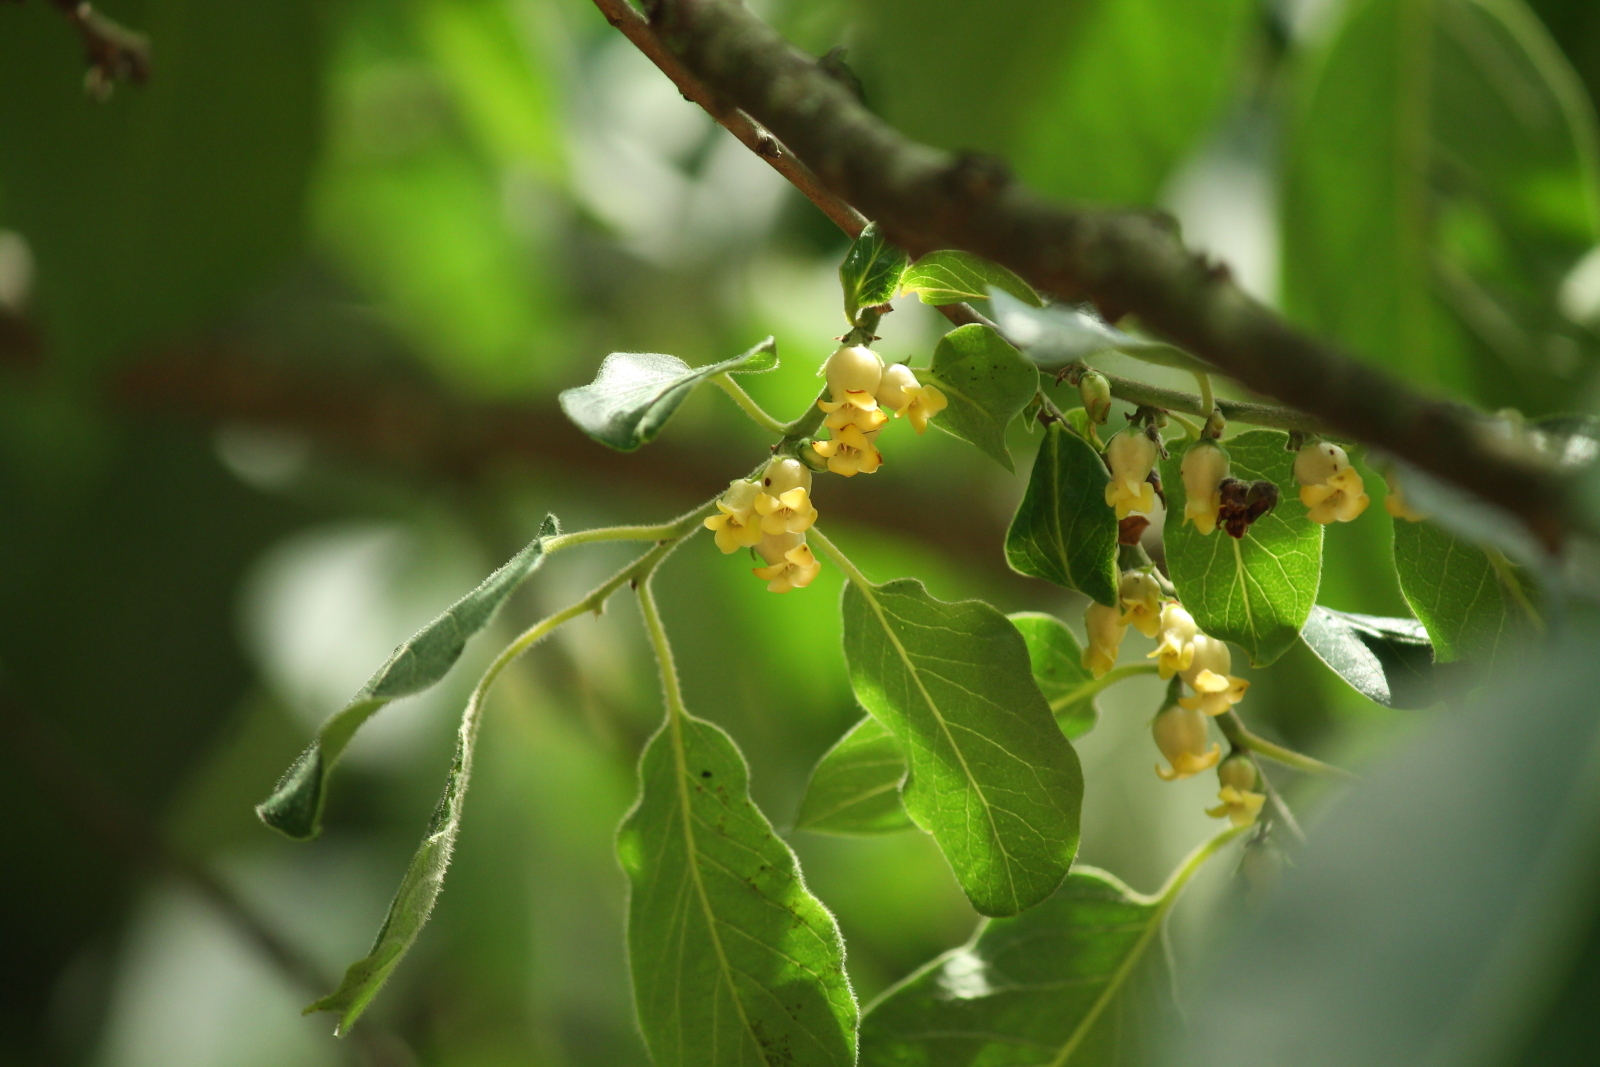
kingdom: Plantae
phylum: Tracheophyta
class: Magnoliopsida
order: Ericales
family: Ebenaceae
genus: Diospyros
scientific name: Diospyros virginiana
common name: Persimmon
